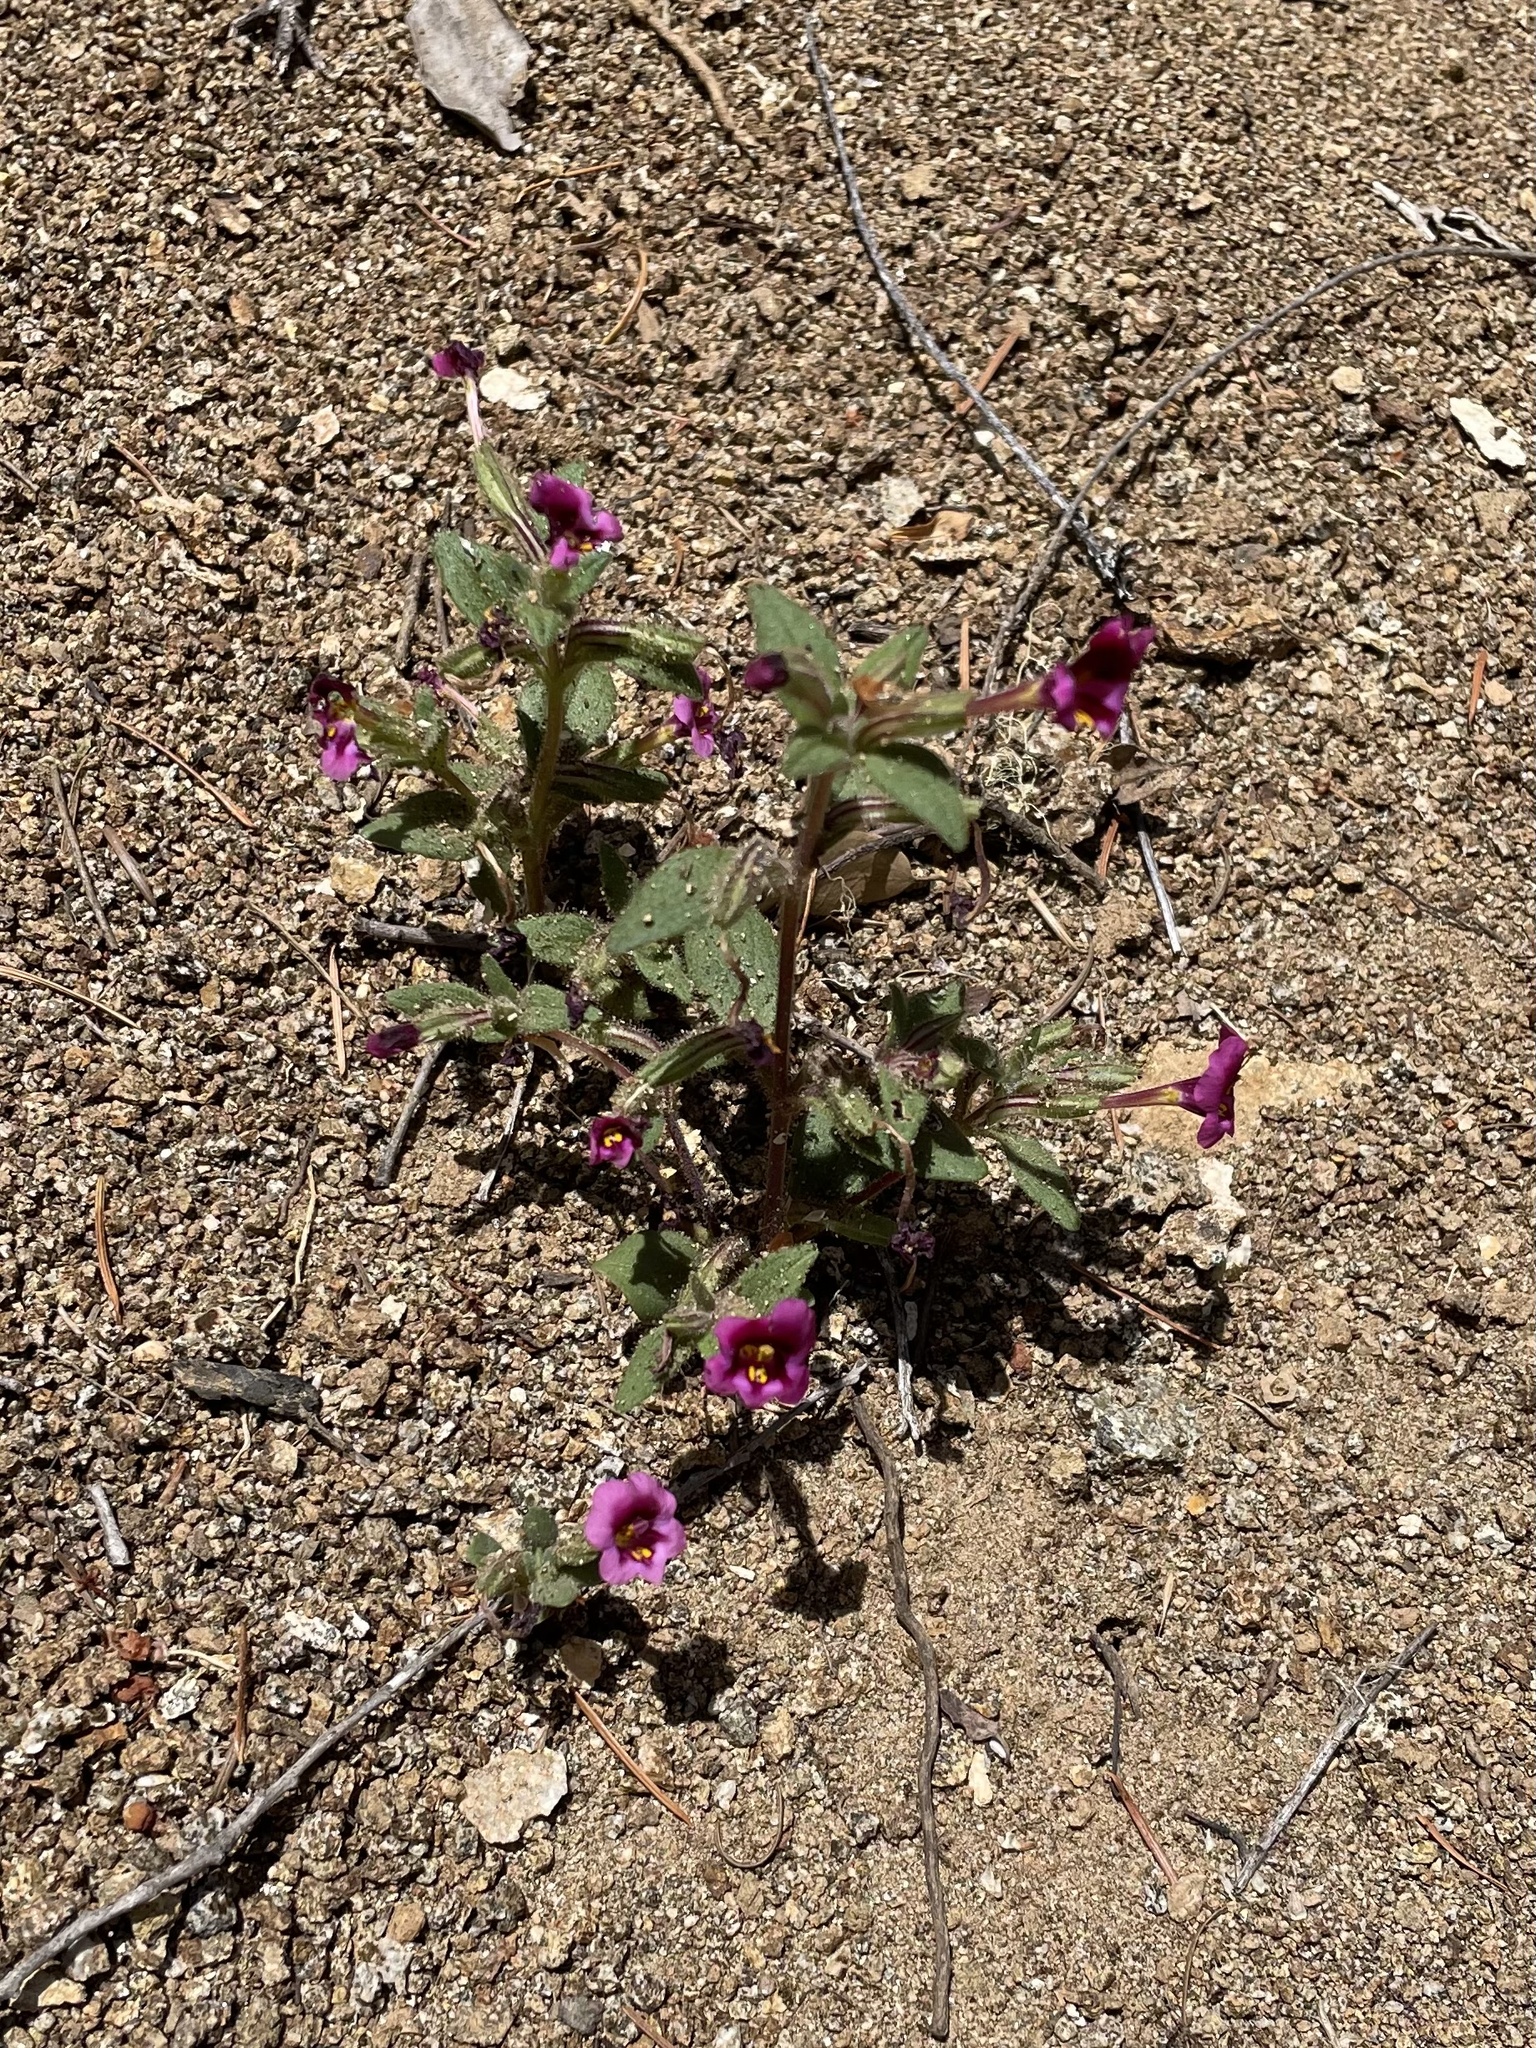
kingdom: Plantae
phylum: Tracheophyta
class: Magnoliopsida
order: Lamiales
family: Phrymaceae
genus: Diplacus
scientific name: Diplacus kelloggii
